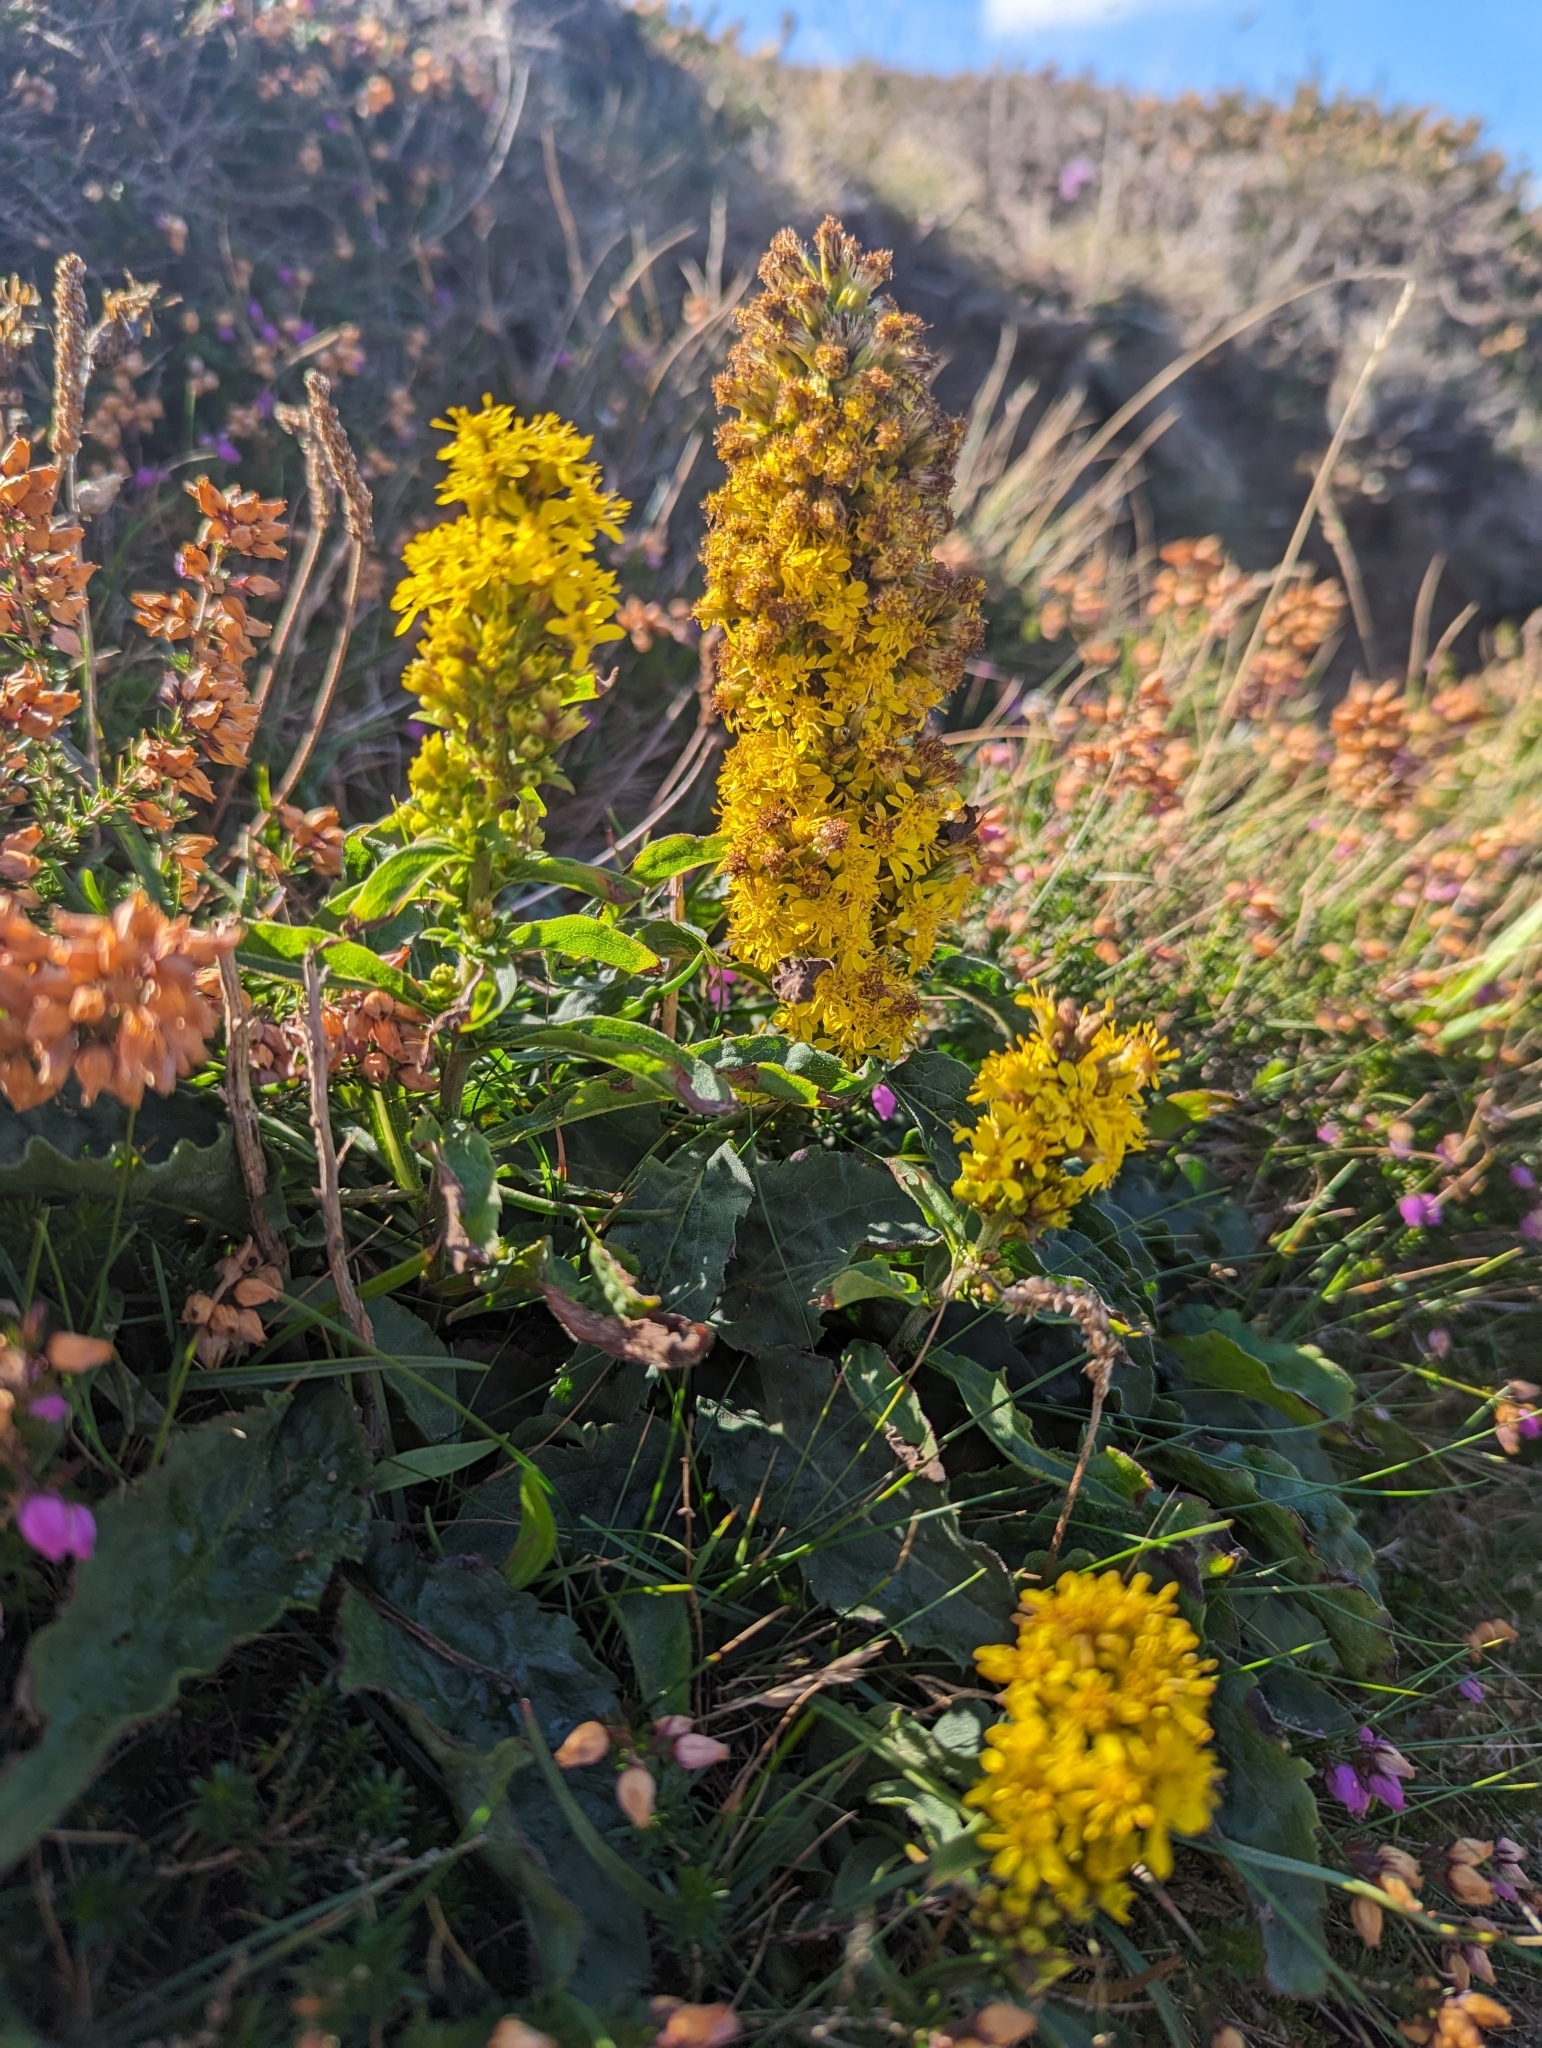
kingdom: Plantae
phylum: Tracheophyta
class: Magnoliopsida
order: Asterales
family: Asteraceae
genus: Solidago
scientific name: Solidago virgaurea
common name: Goldenrod
